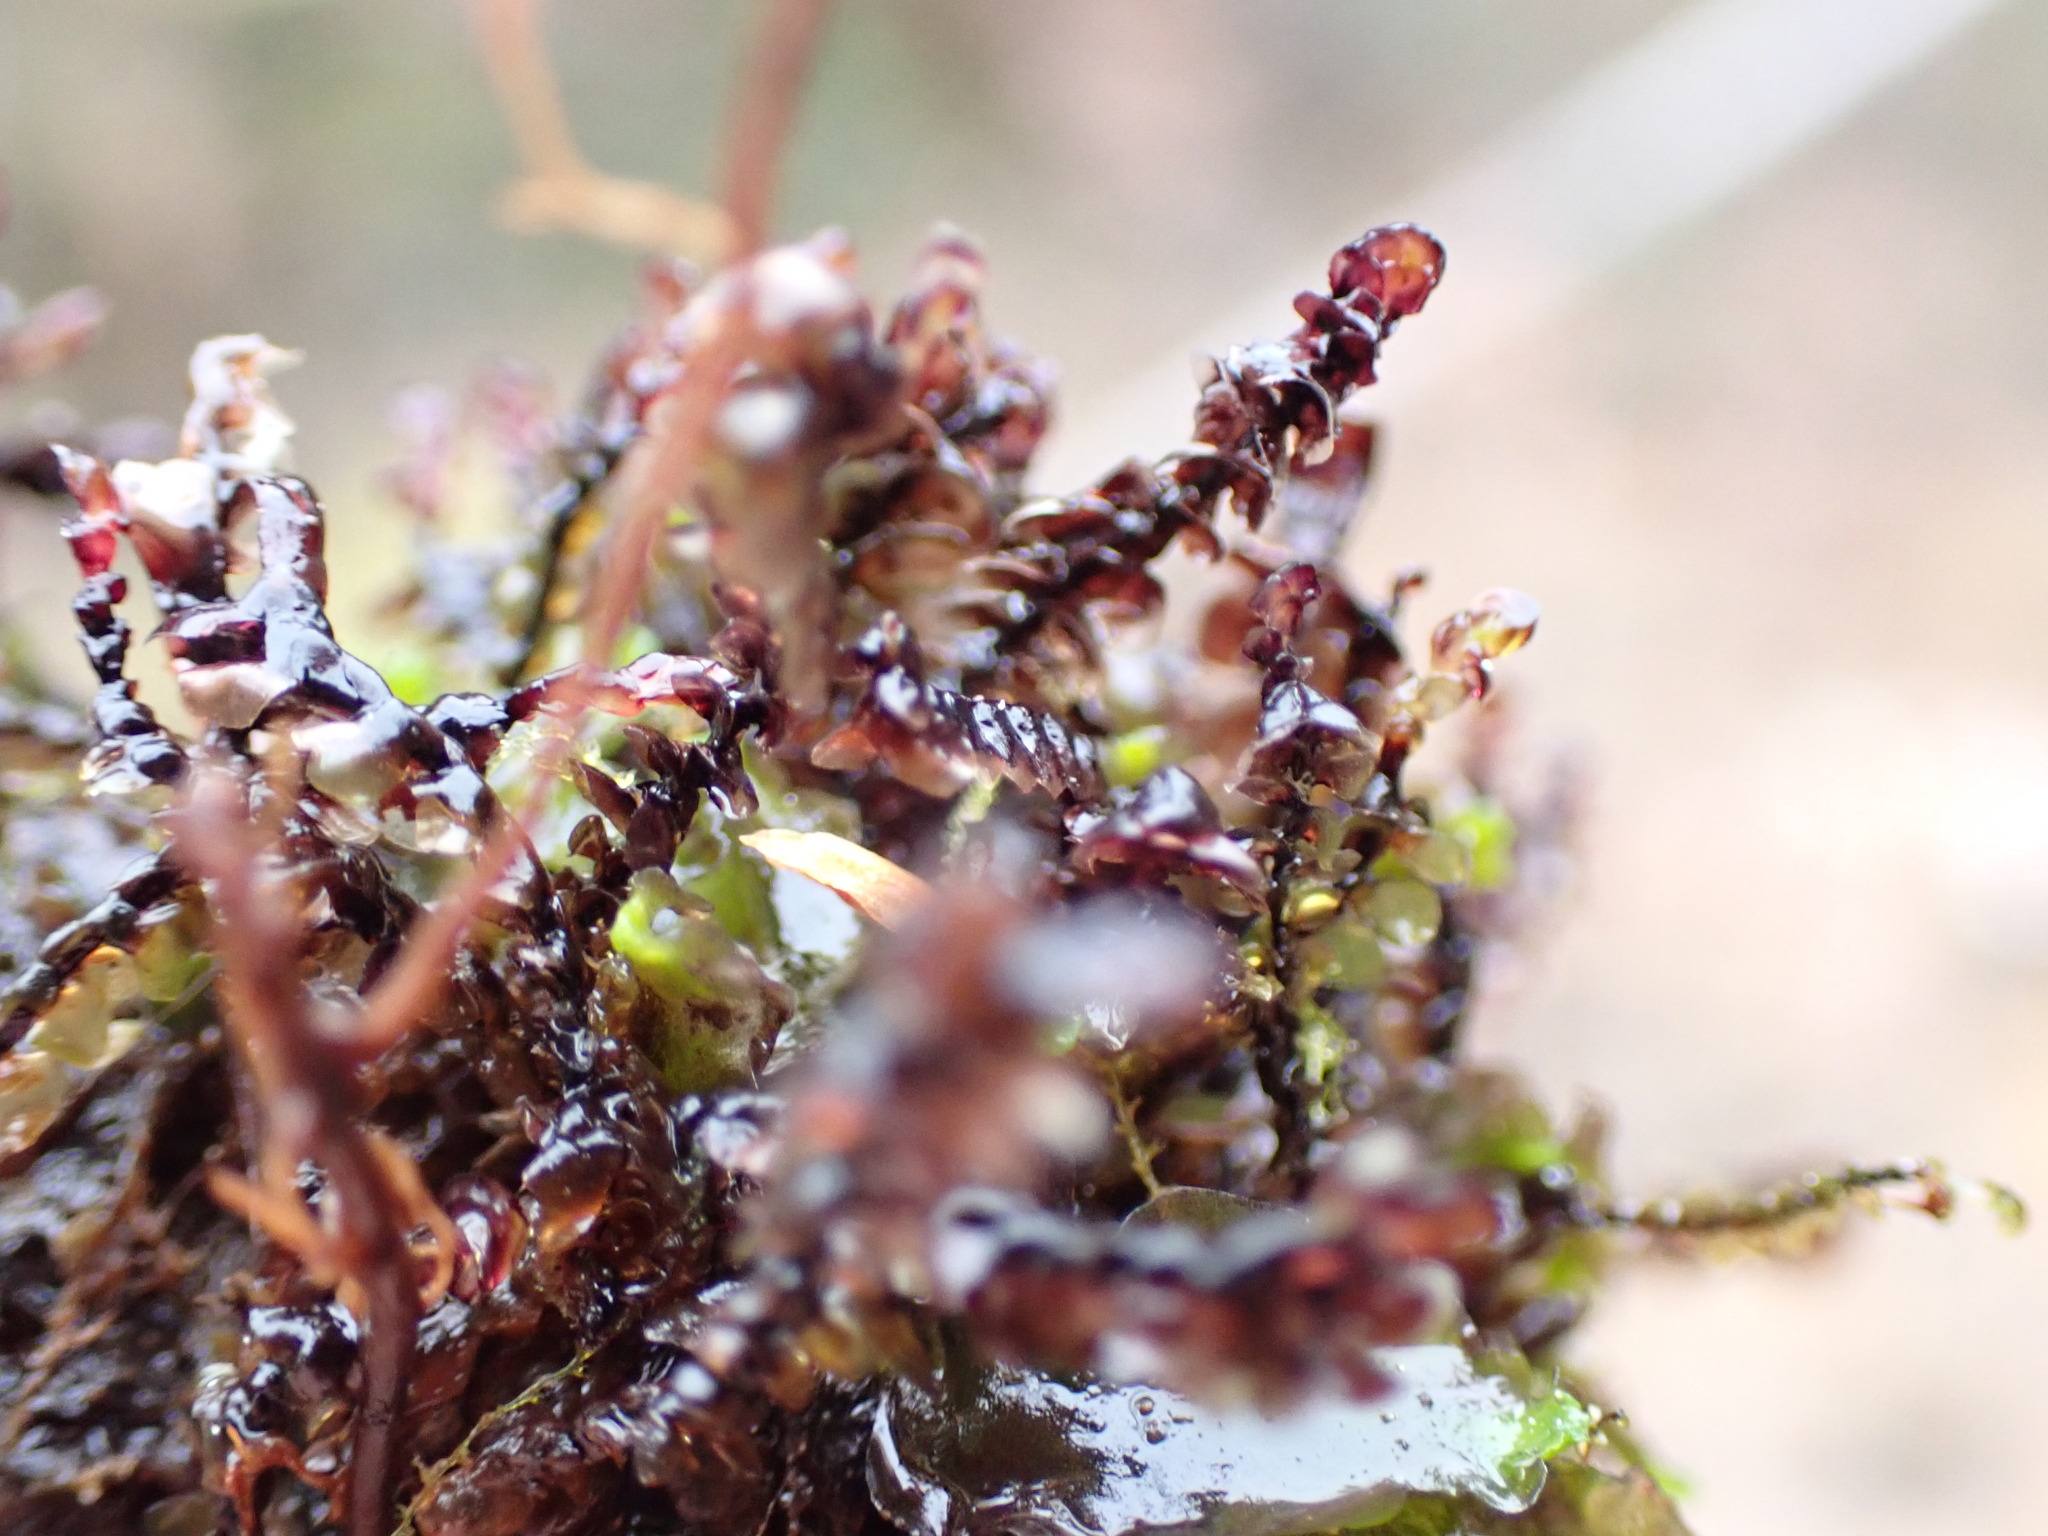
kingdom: Plantae
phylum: Marchantiophyta
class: Jungermanniopsida
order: Jungermanniales
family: Scapaniaceae
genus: Scapania
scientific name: Scapania undulata
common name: Water earwort
